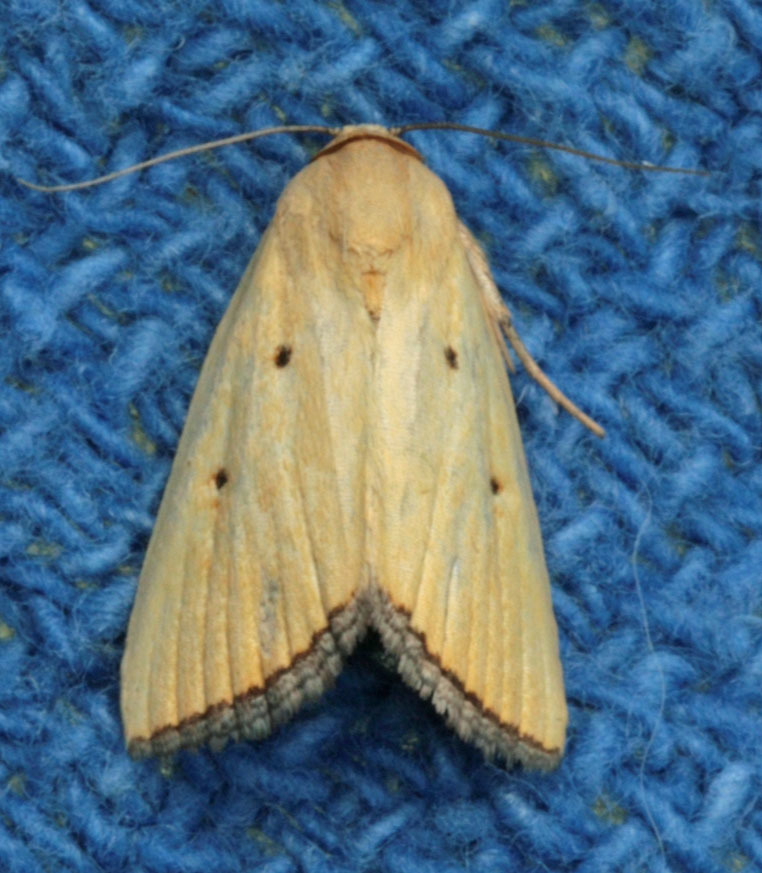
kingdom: Animalia
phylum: Arthropoda
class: Insecta
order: Lepidoptera
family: Noctuidae
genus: Marimatha
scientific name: Marimatha nigrofimbria
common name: Black-bordered lemon moth
